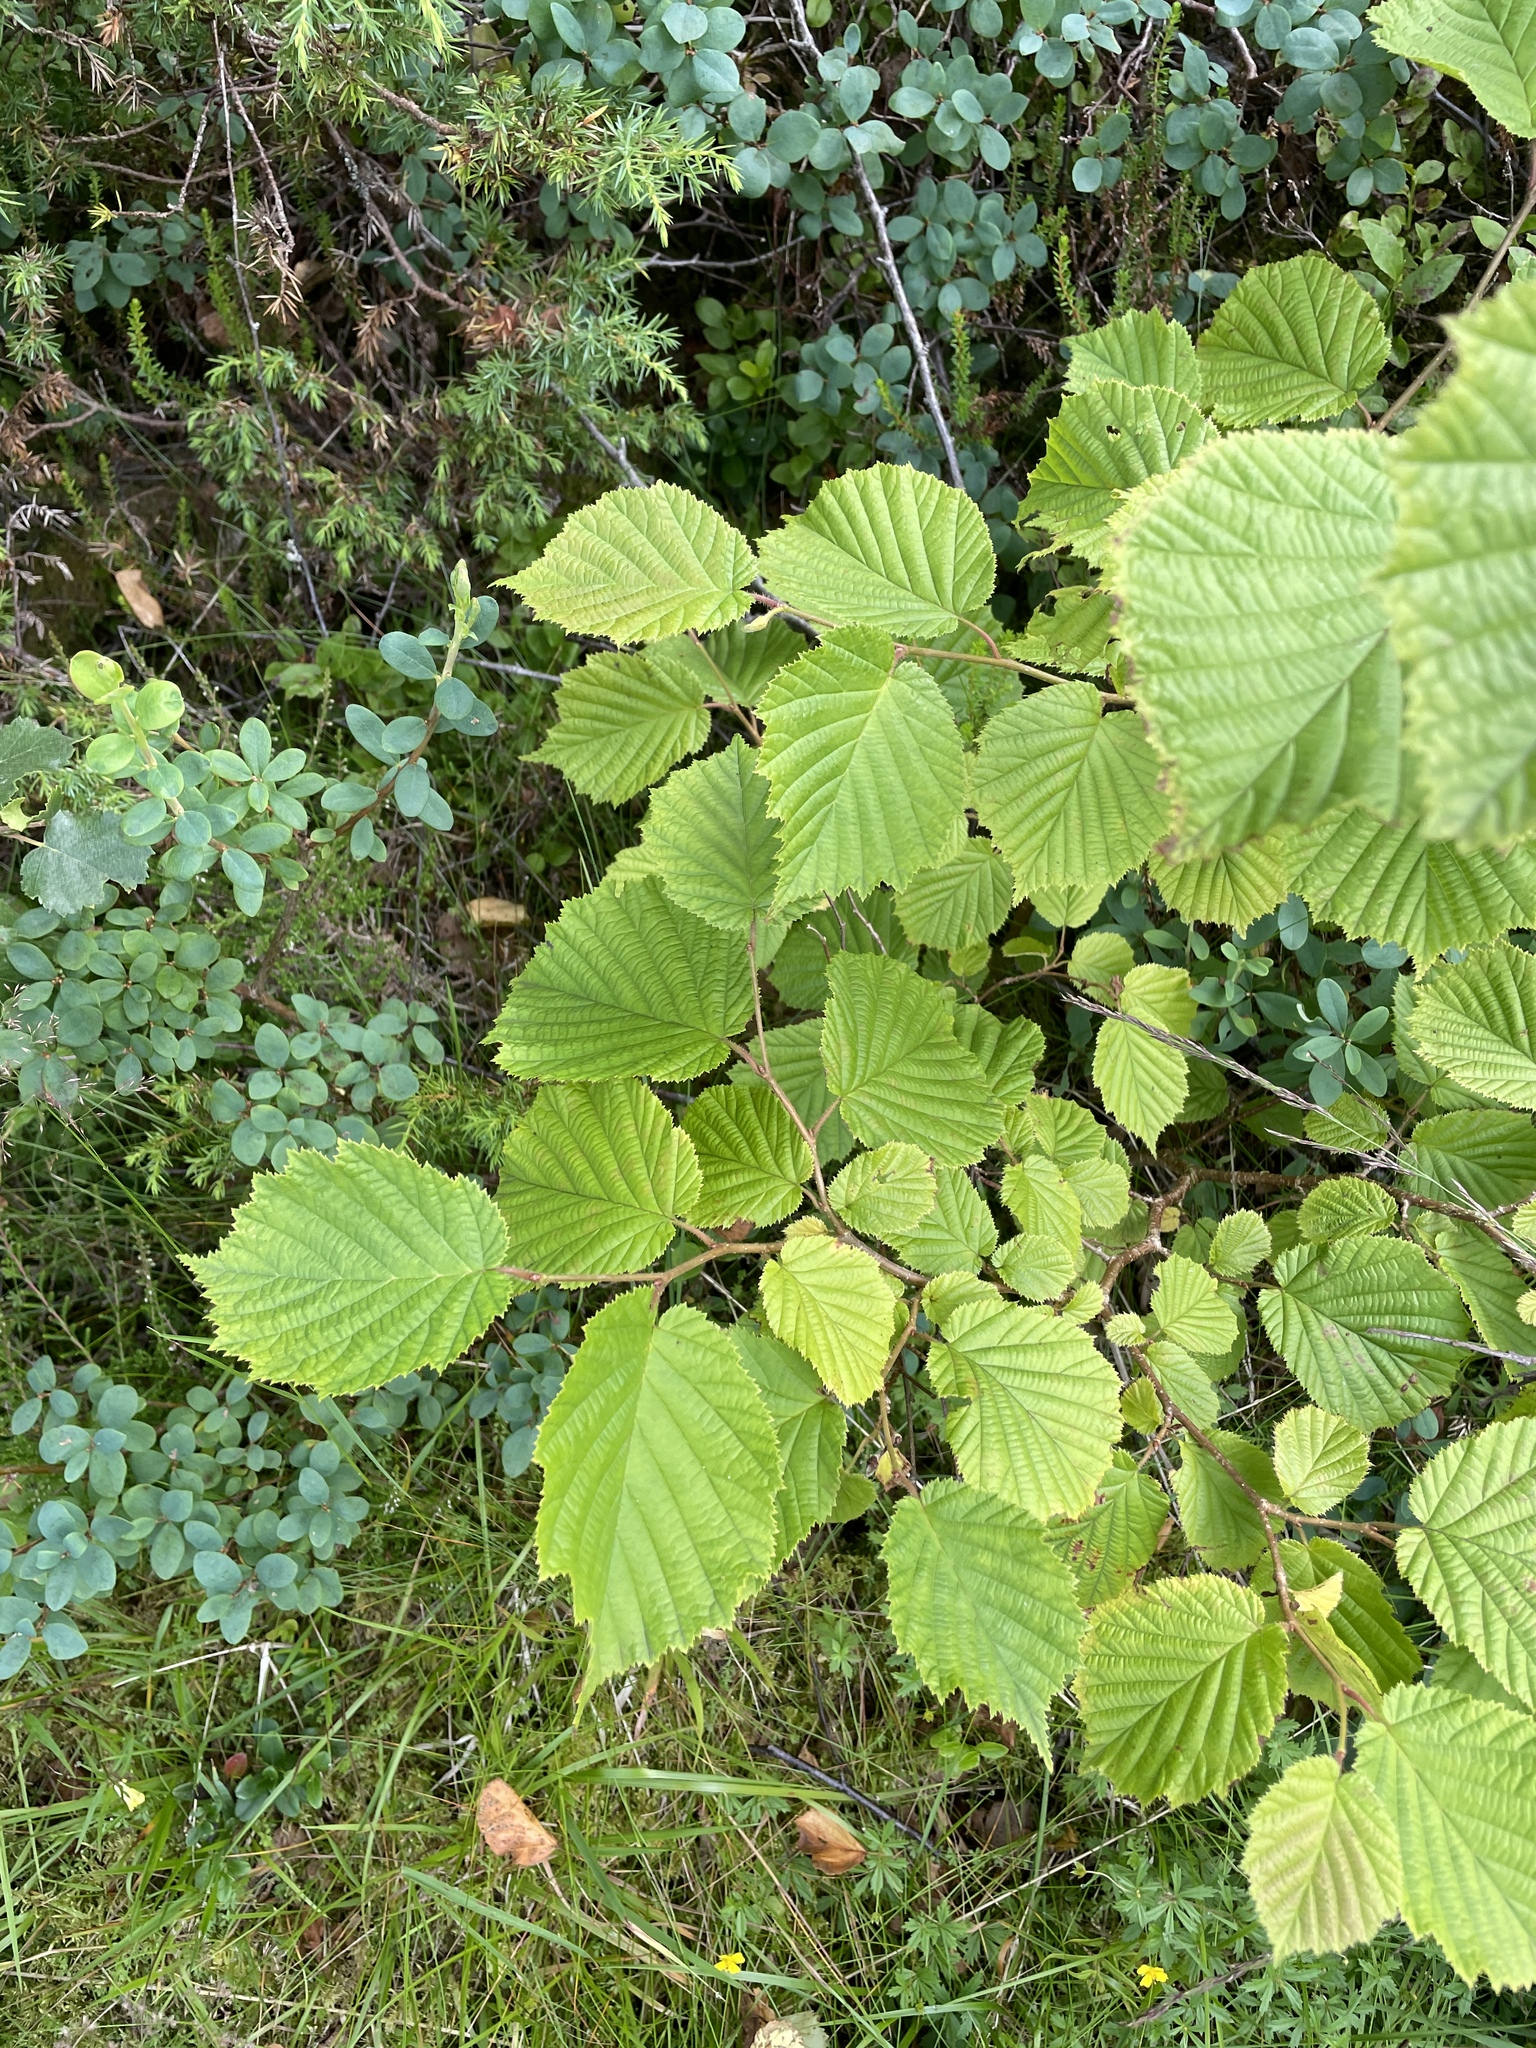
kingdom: Plantae
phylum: Tracheophyta
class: Magnoliopsida
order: Fagales
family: Betulaceae
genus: Corylus
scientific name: Corylus avellana
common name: European hazel
